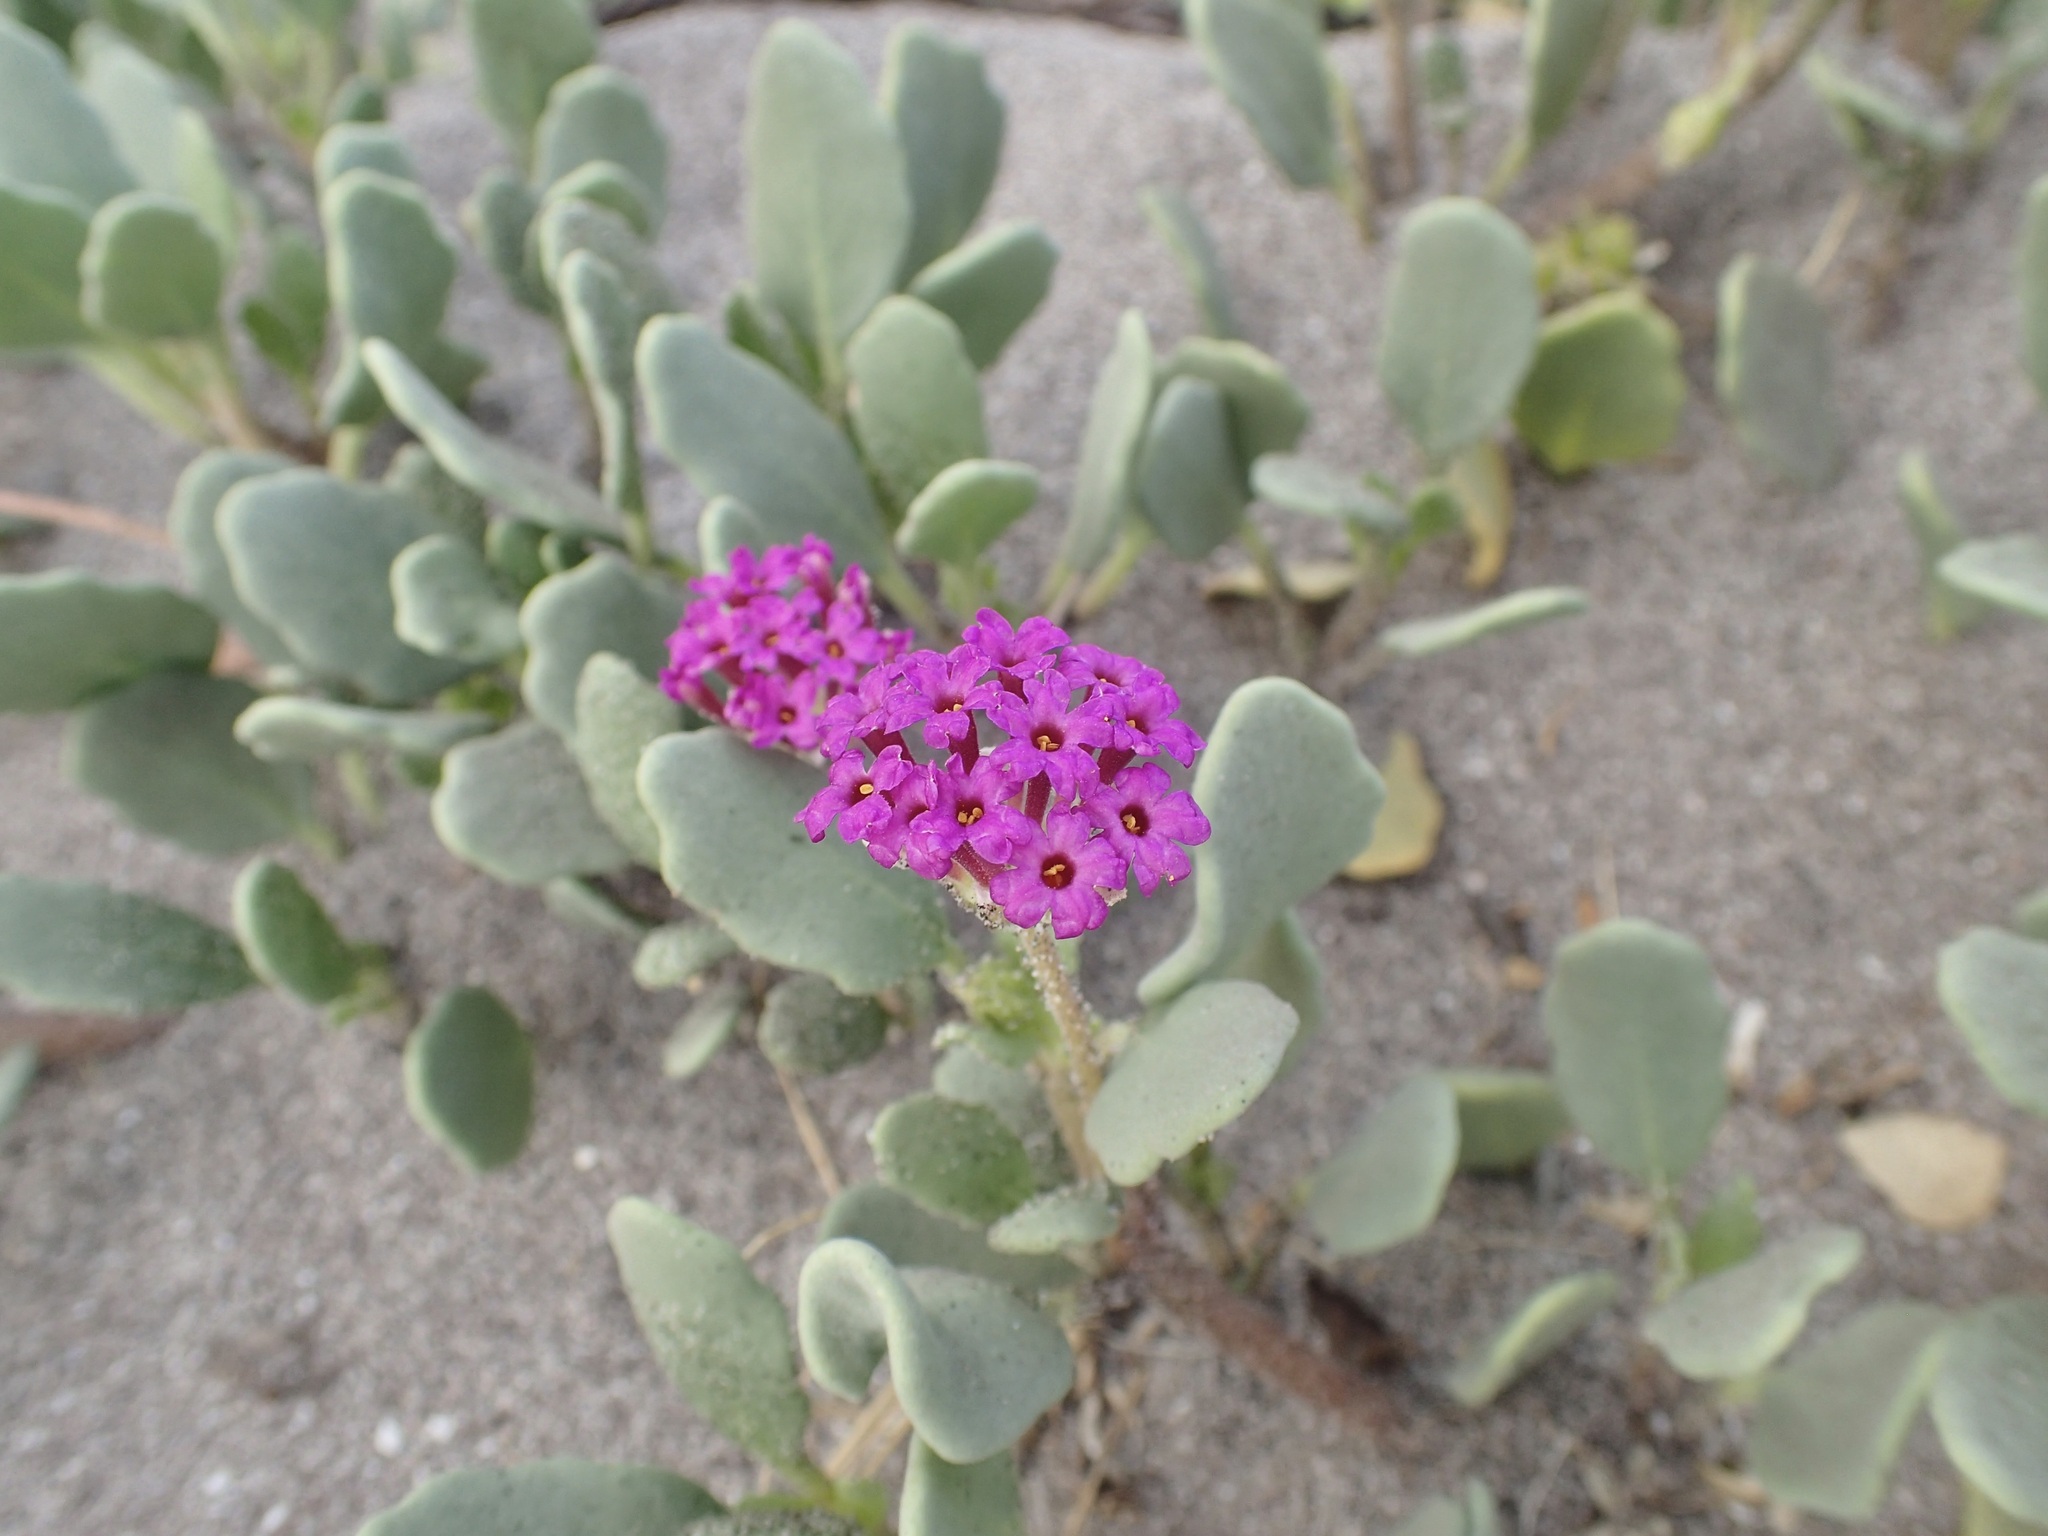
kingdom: Plantae
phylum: Tracheophyta
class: Magnoliopsida
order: Caryophyllales
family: Nyctaginaceae
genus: Abronia
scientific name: Abronia maritima
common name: Red sand-verbena
